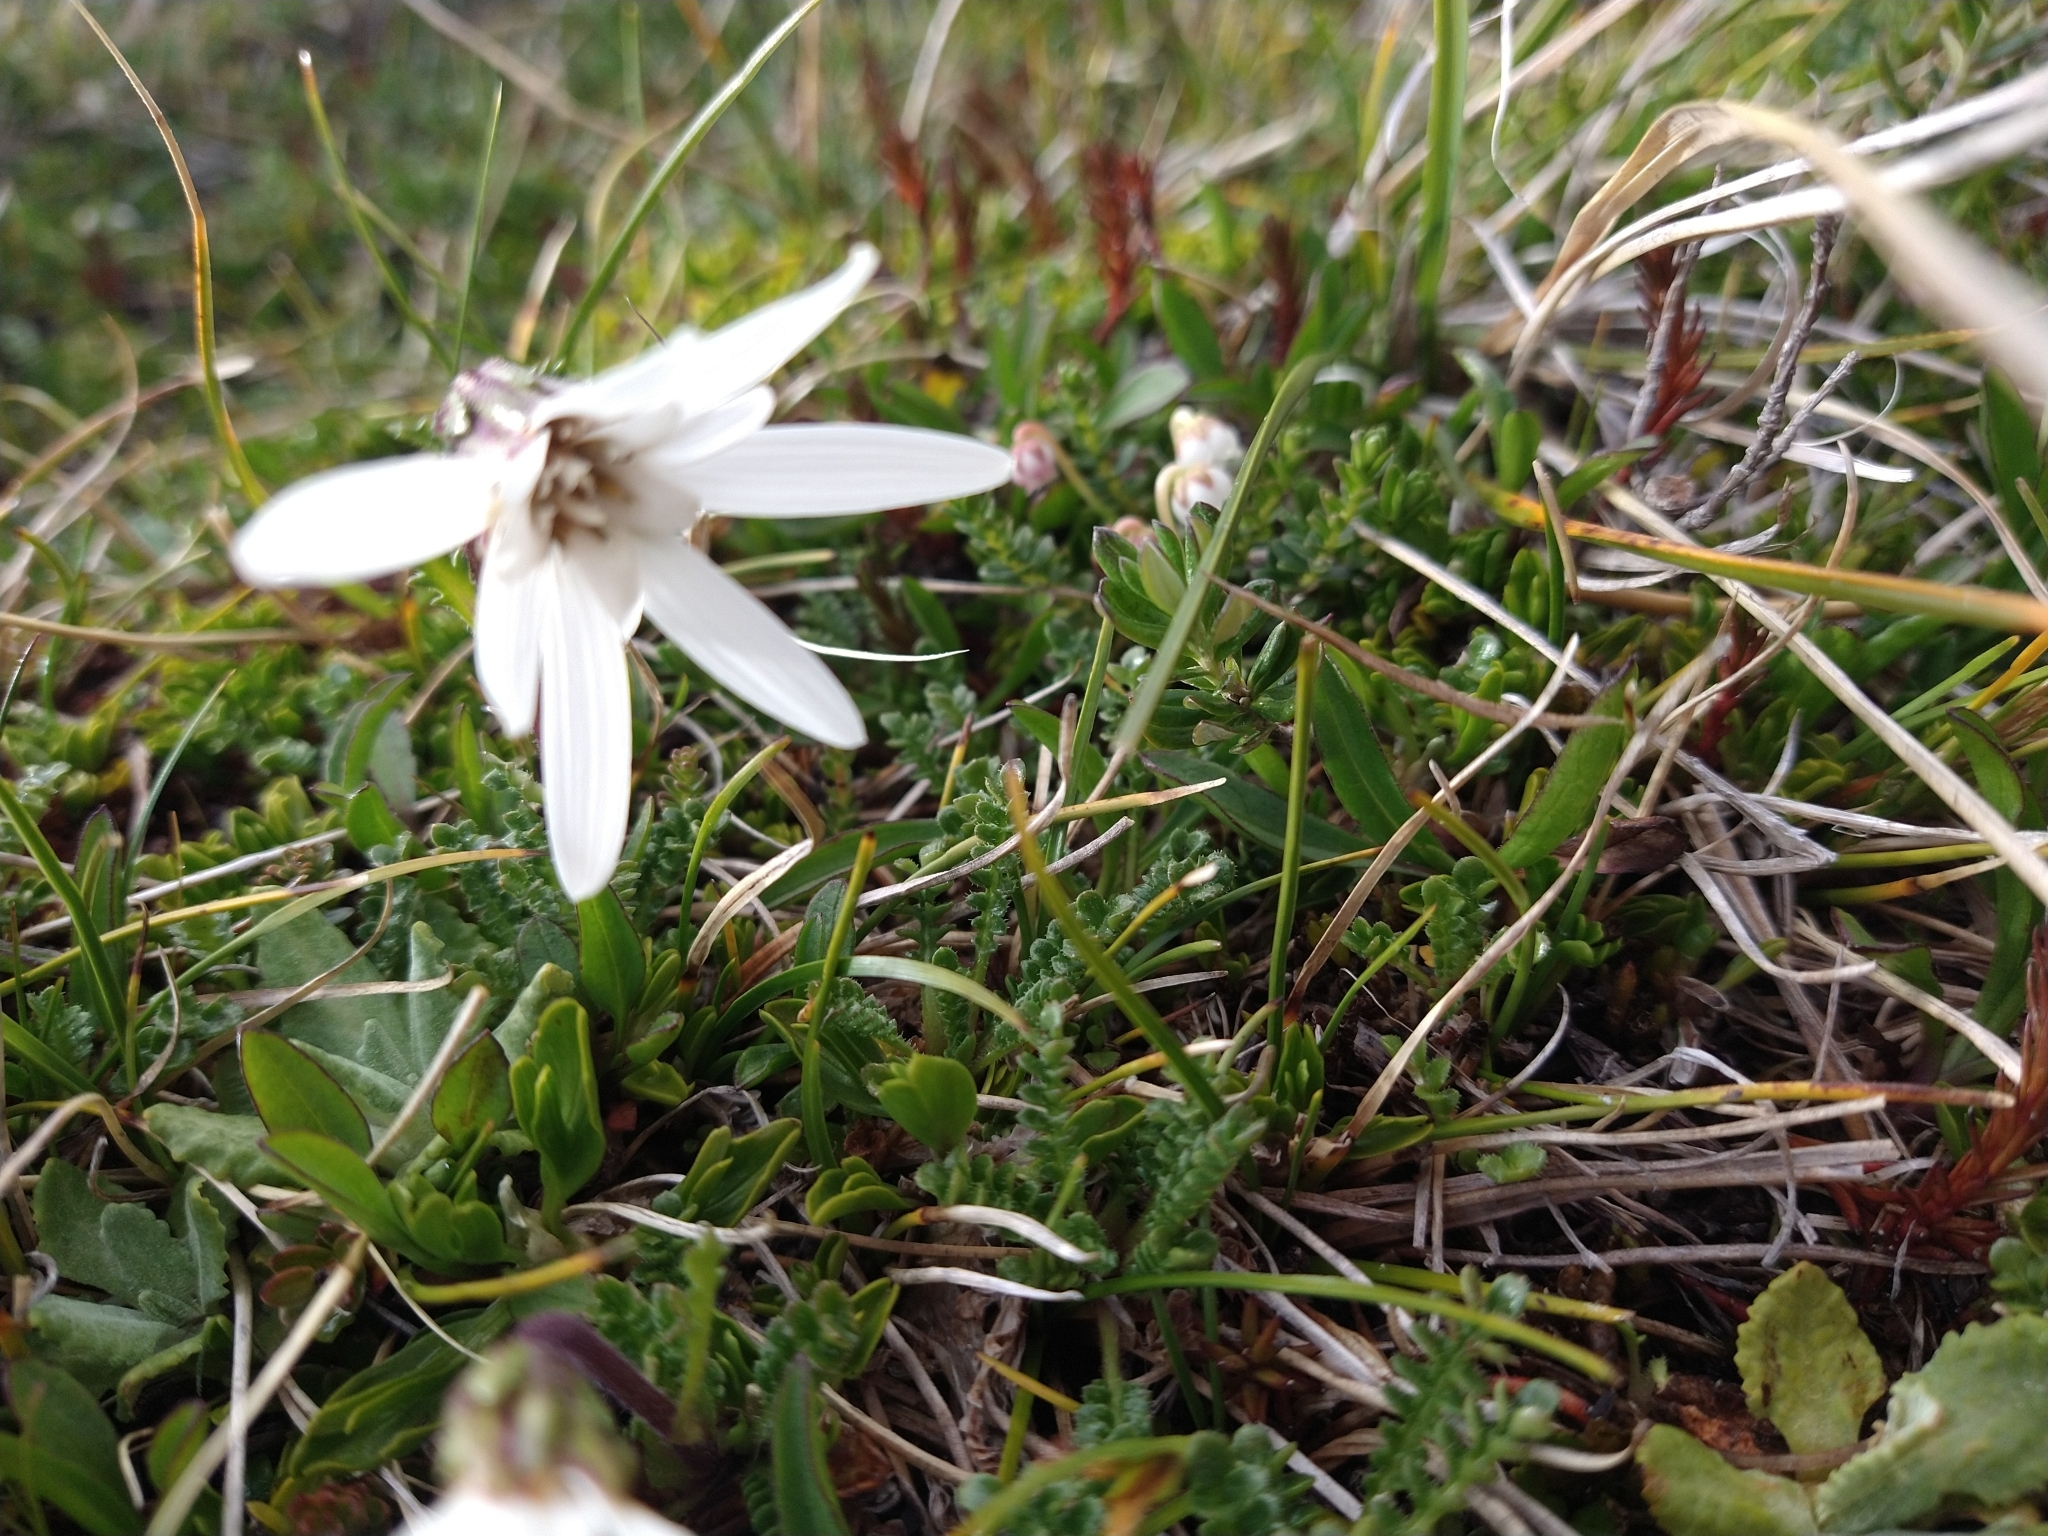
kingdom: Plantae
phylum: Tracheophyta
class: Magnoliopsida
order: Asterales
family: Asteraceae
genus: Perezia
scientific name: Perezia magellanica
